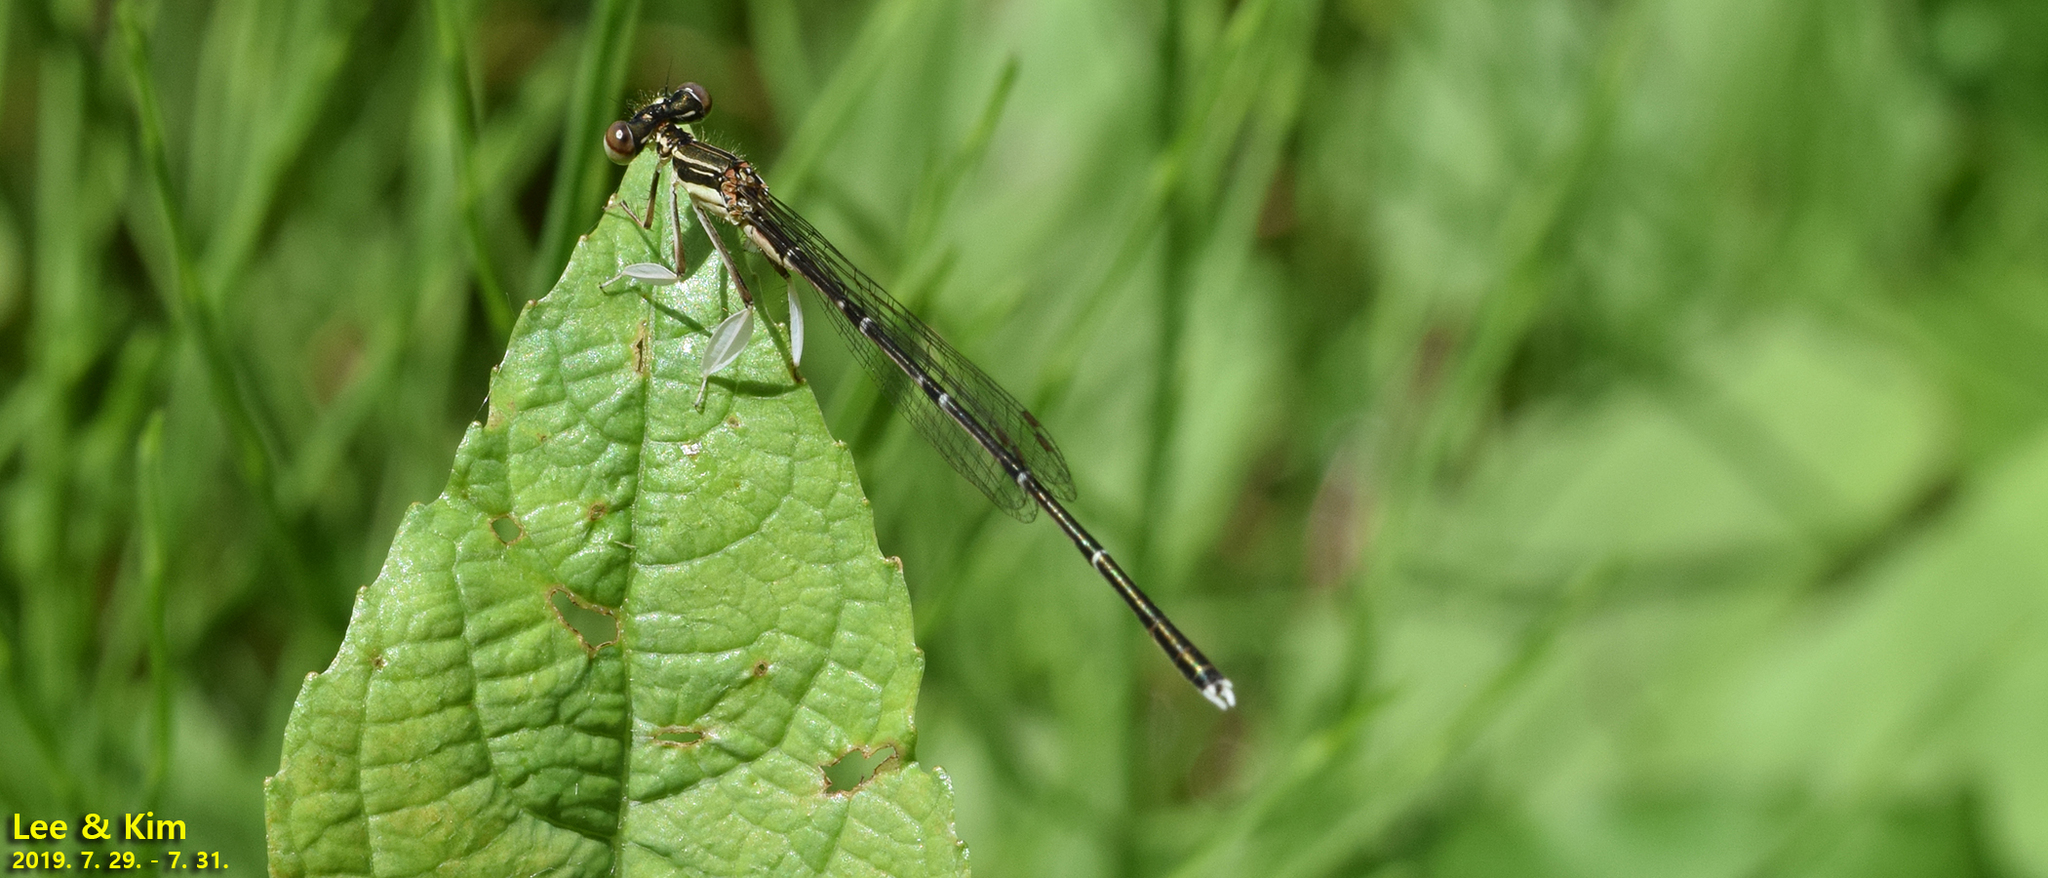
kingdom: Animalia
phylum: Arthropoda
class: Insecta
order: Odonata
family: Platycnemididae
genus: Platycnemis
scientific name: Platycnemis phyllopoda
